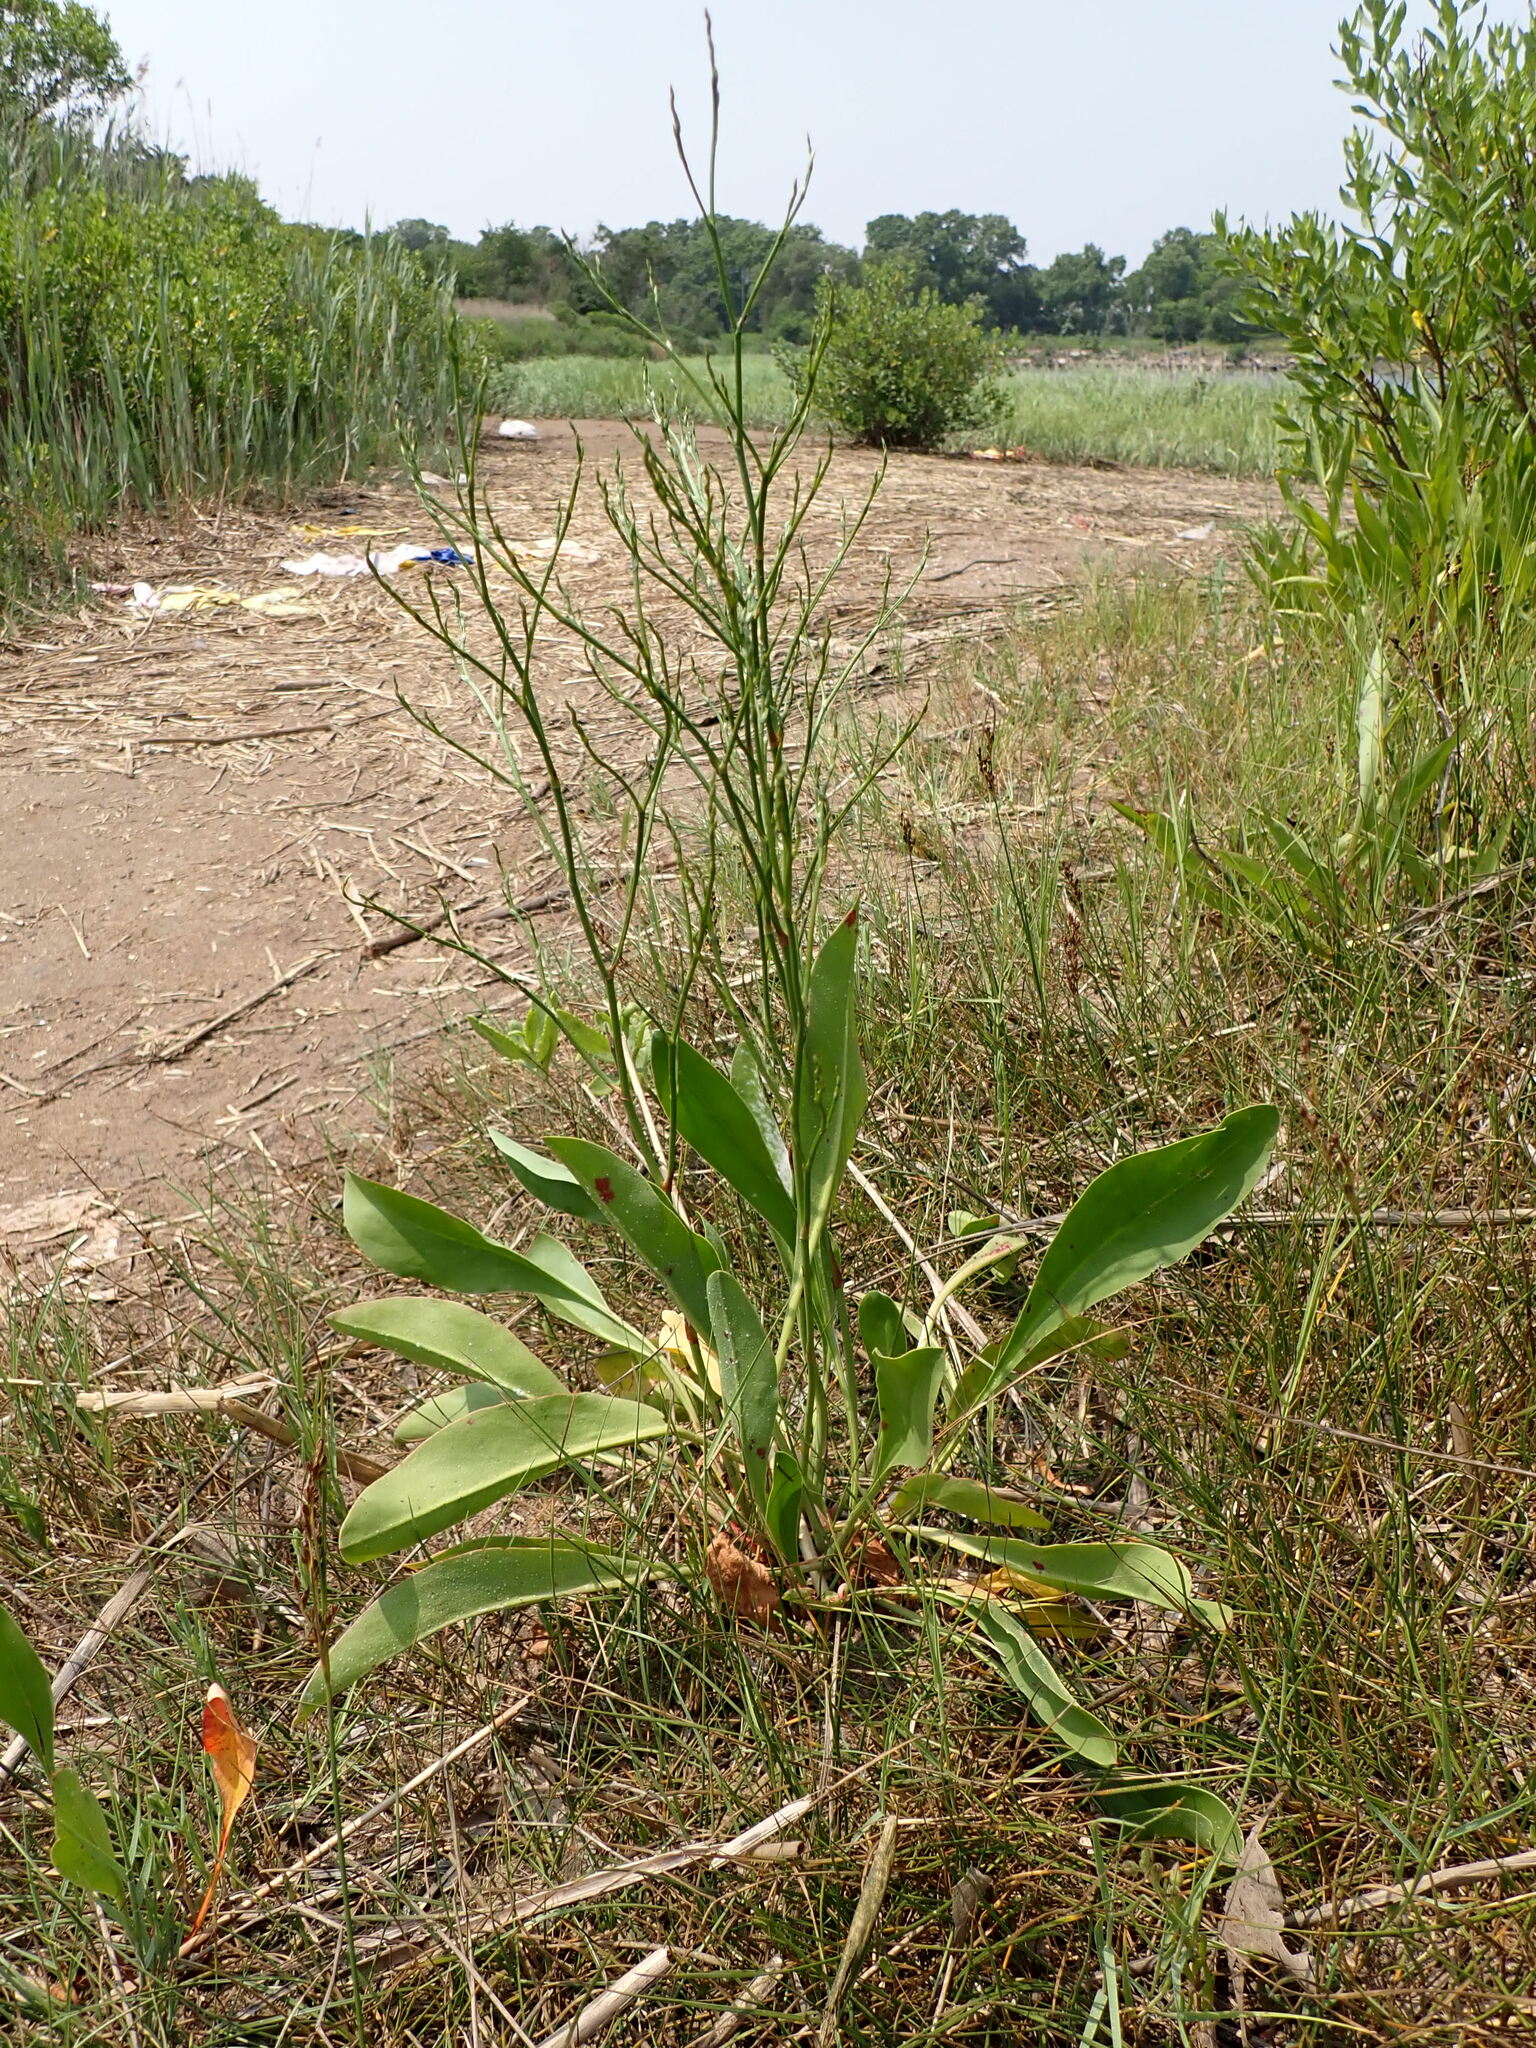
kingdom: Plantae
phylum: Tracheophyta
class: Magnoliopsida
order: Caryophyllales
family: Plumbaginaceae
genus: Limonium
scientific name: Limonium carolinianum
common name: Carolina sea lavender
